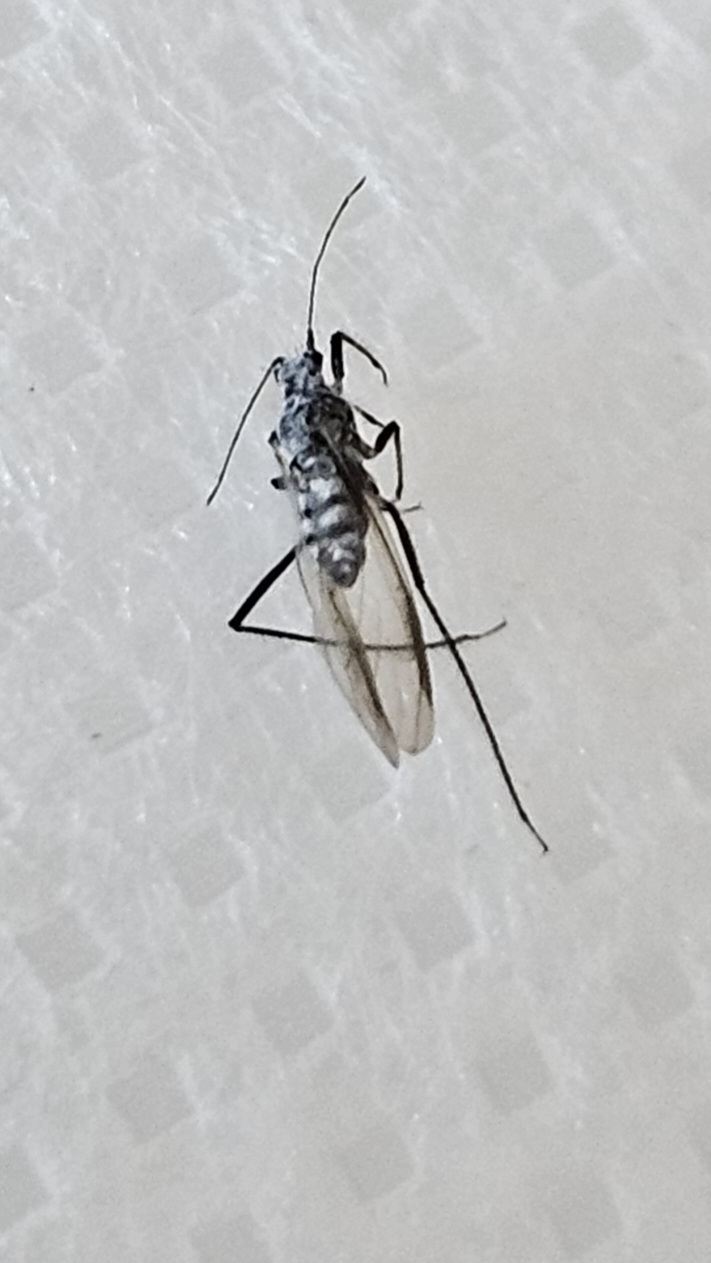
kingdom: Animalia
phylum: Arthropoda
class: Insecta
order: Hemiptera
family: Aphididae
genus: Eulachnus
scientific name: Eulachnus rileyi
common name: Active gray pine needle aphid
